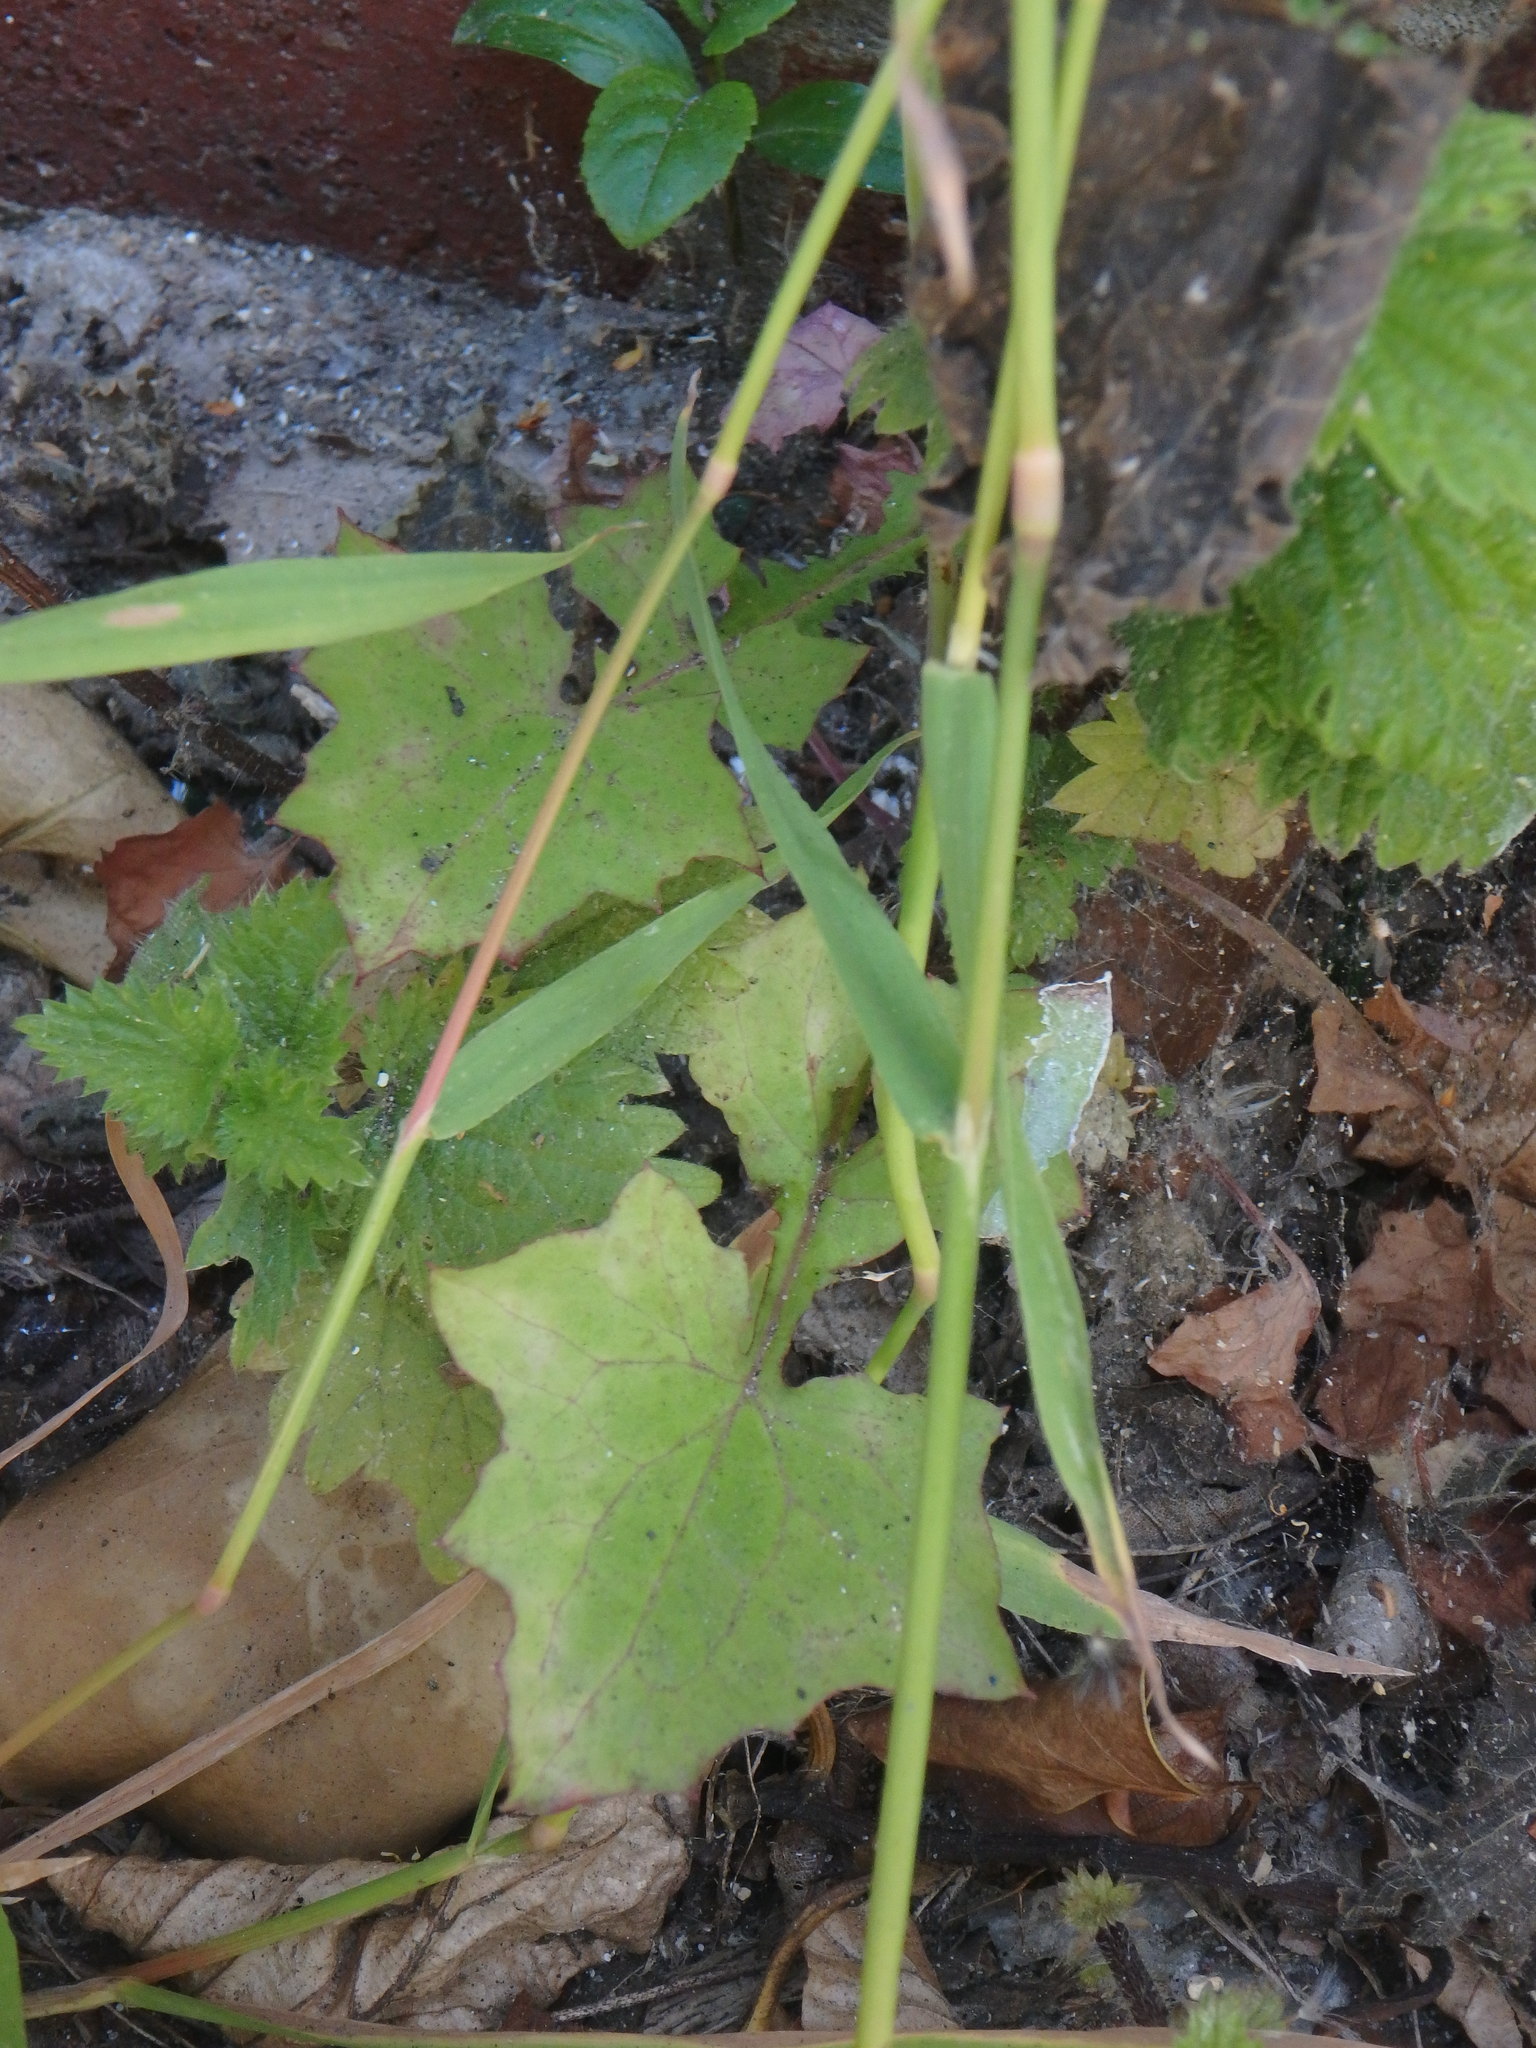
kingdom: Plantae
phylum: Tracheophyta
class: Magnoliopsida
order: Asterales
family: Asteraceae
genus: Mycelis
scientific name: Mycelis muralis
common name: Wall lettuce
